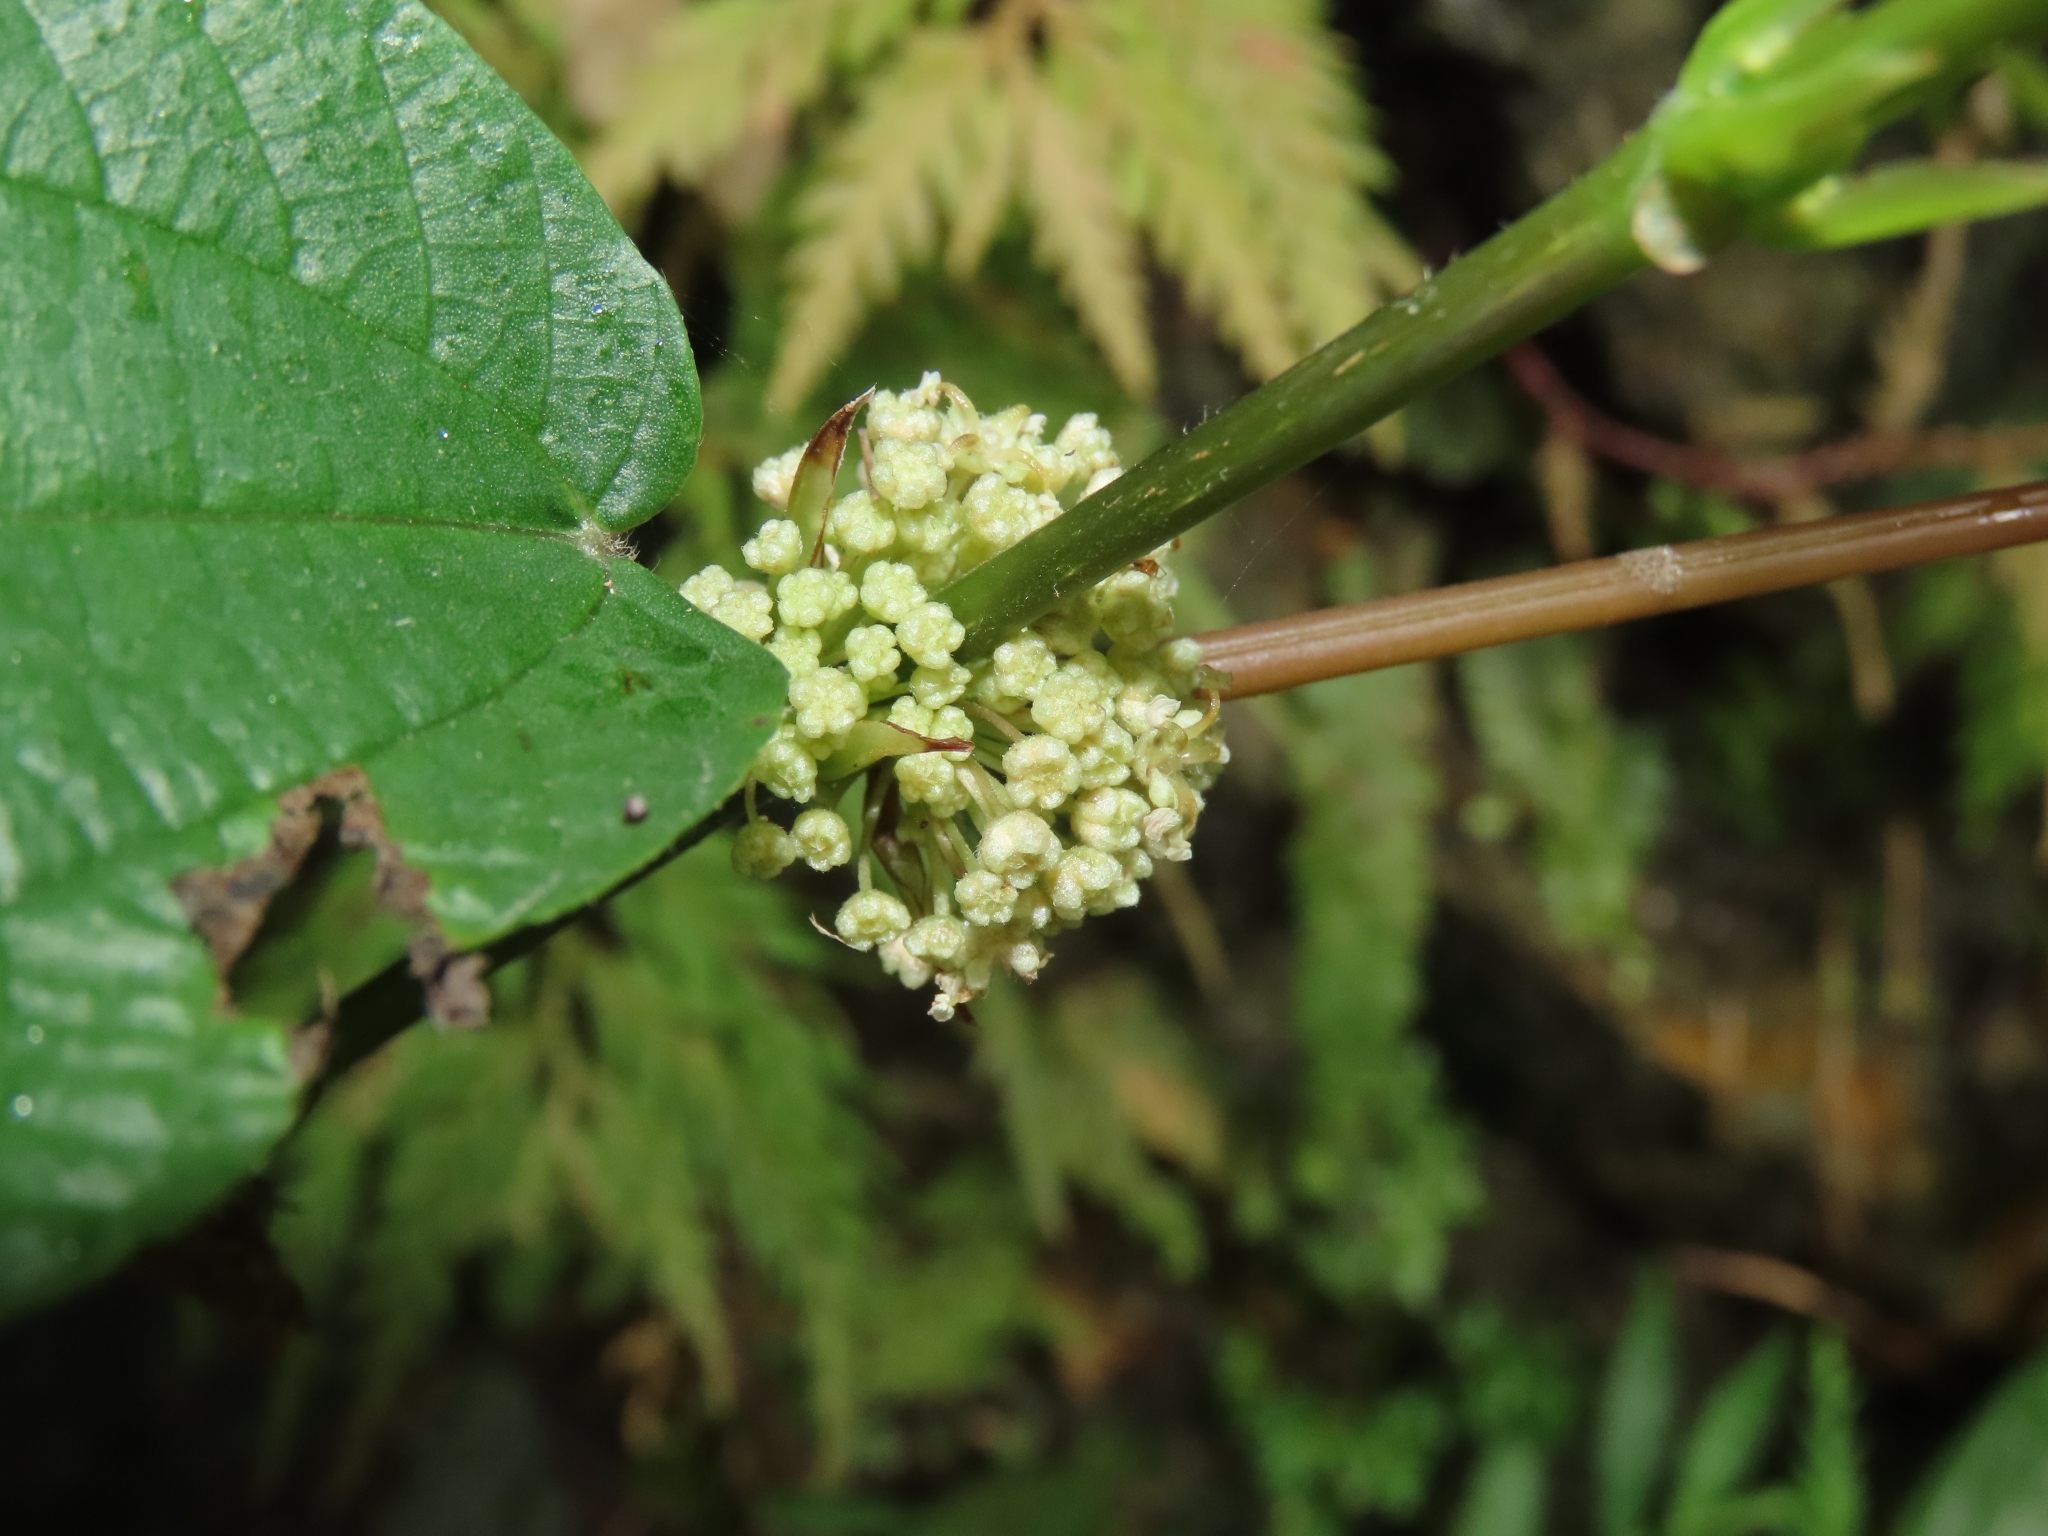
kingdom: Plantae
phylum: Tracheophyta
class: Magnoliopsida
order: Rosales
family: Urticaceae
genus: Boehmeria
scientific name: Boehmeria zollingeriana
